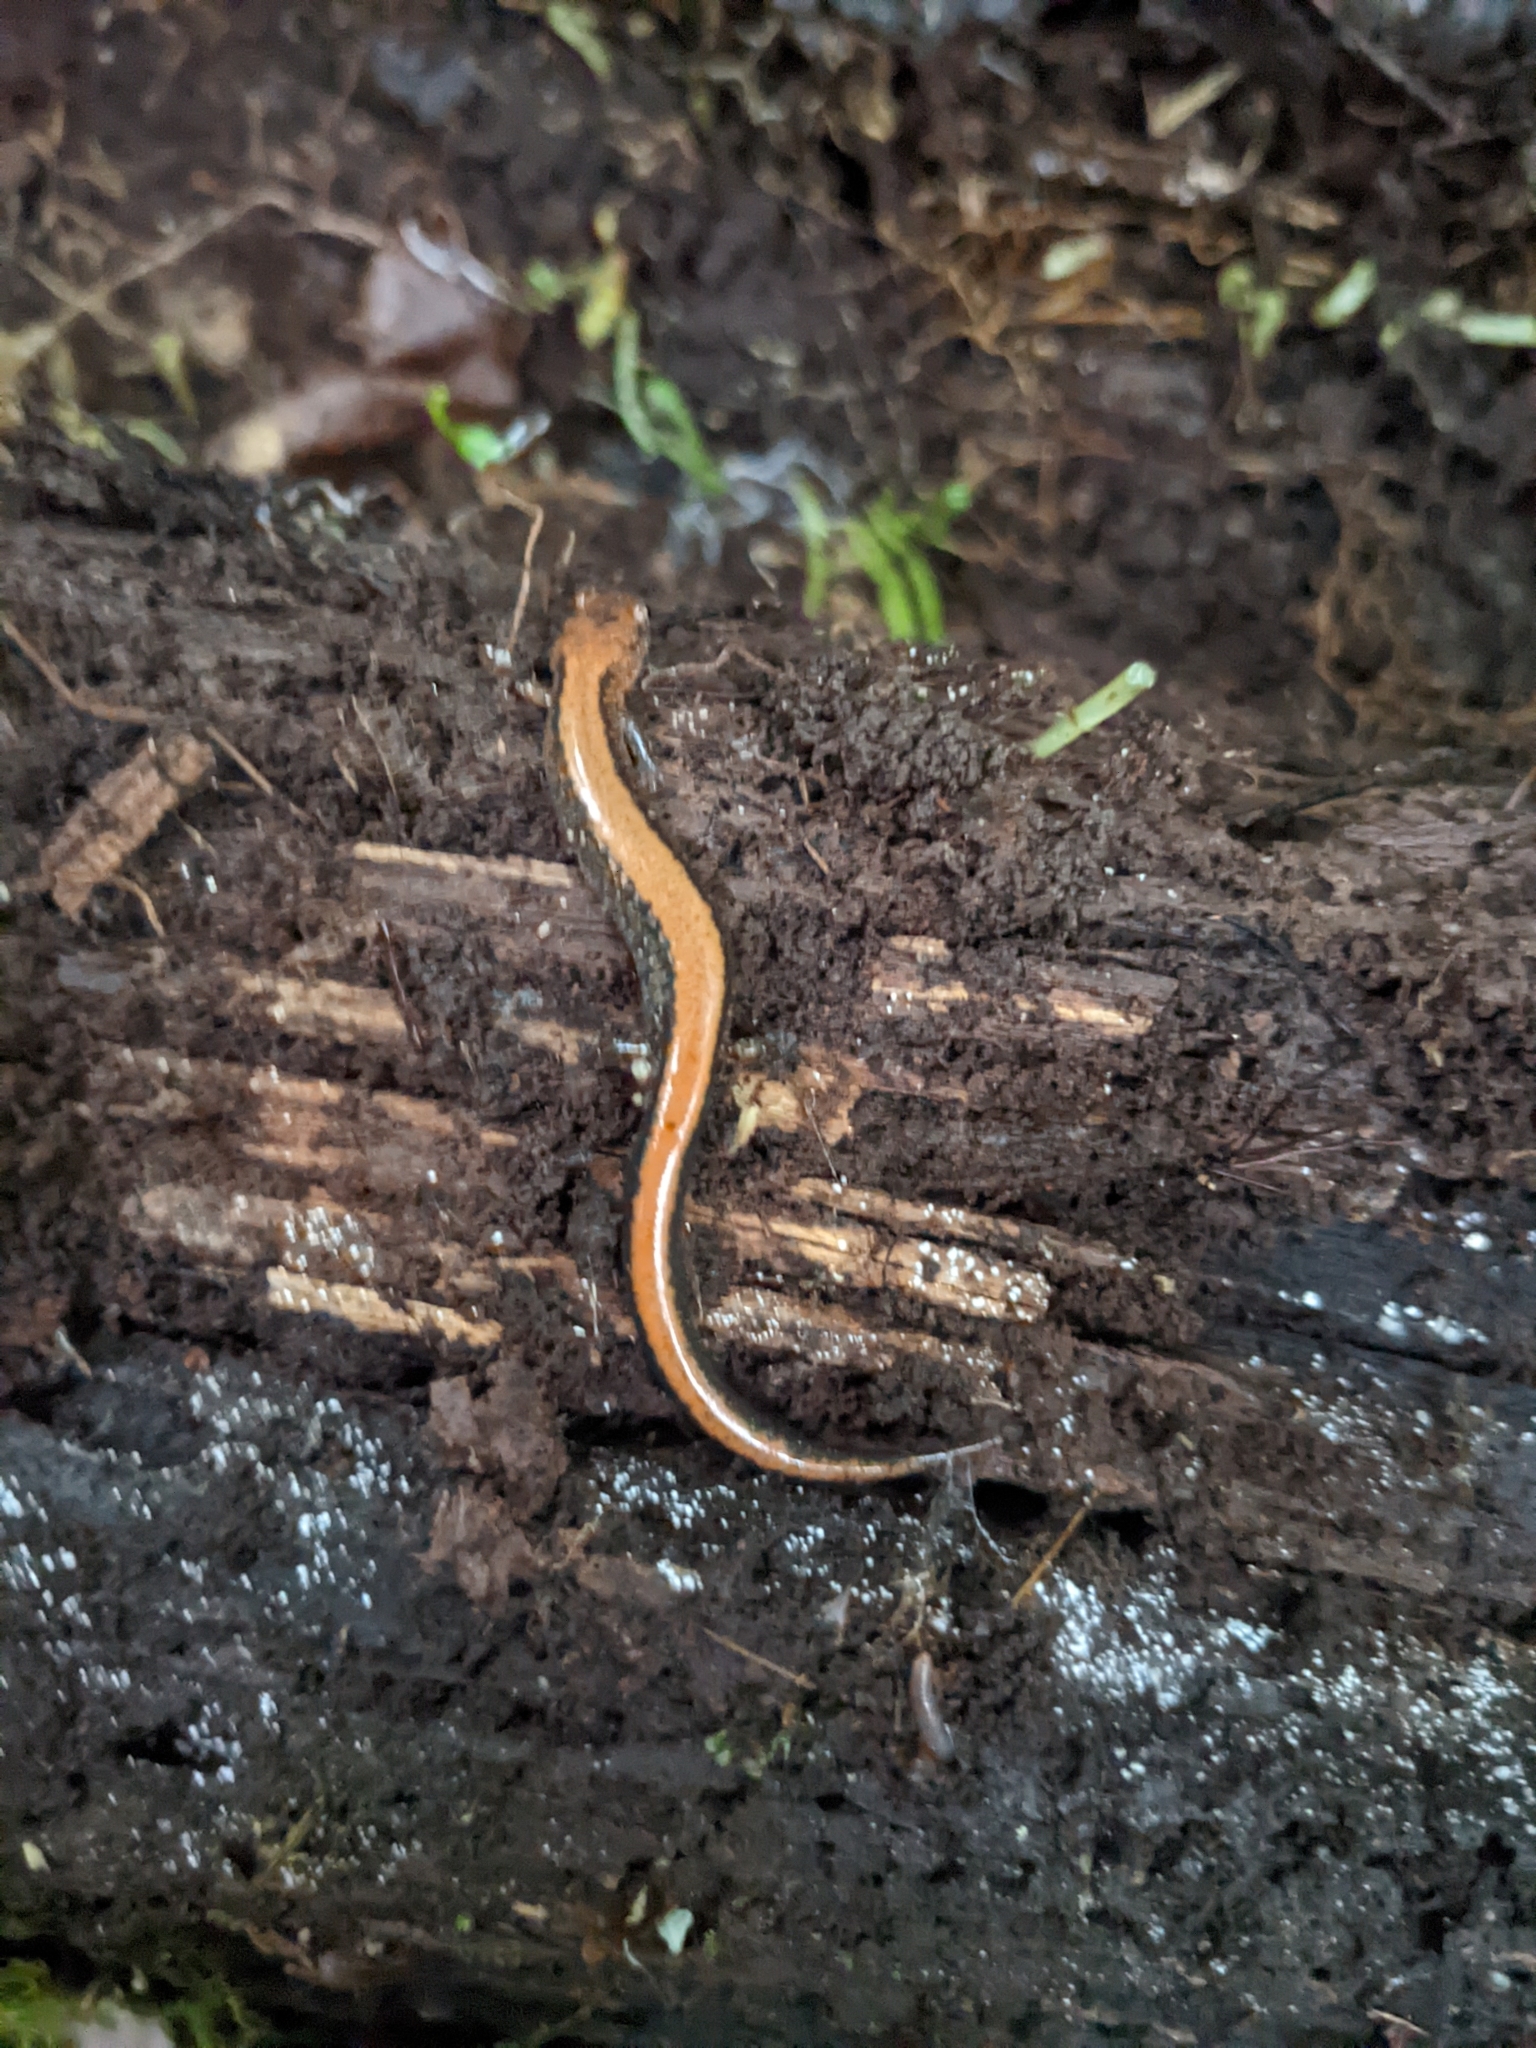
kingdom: Animalia
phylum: Chordata
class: Amphibia
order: Caudata
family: Plethodontidae
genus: Plethodon
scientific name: Plethodon cinereus
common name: Redback salamander
